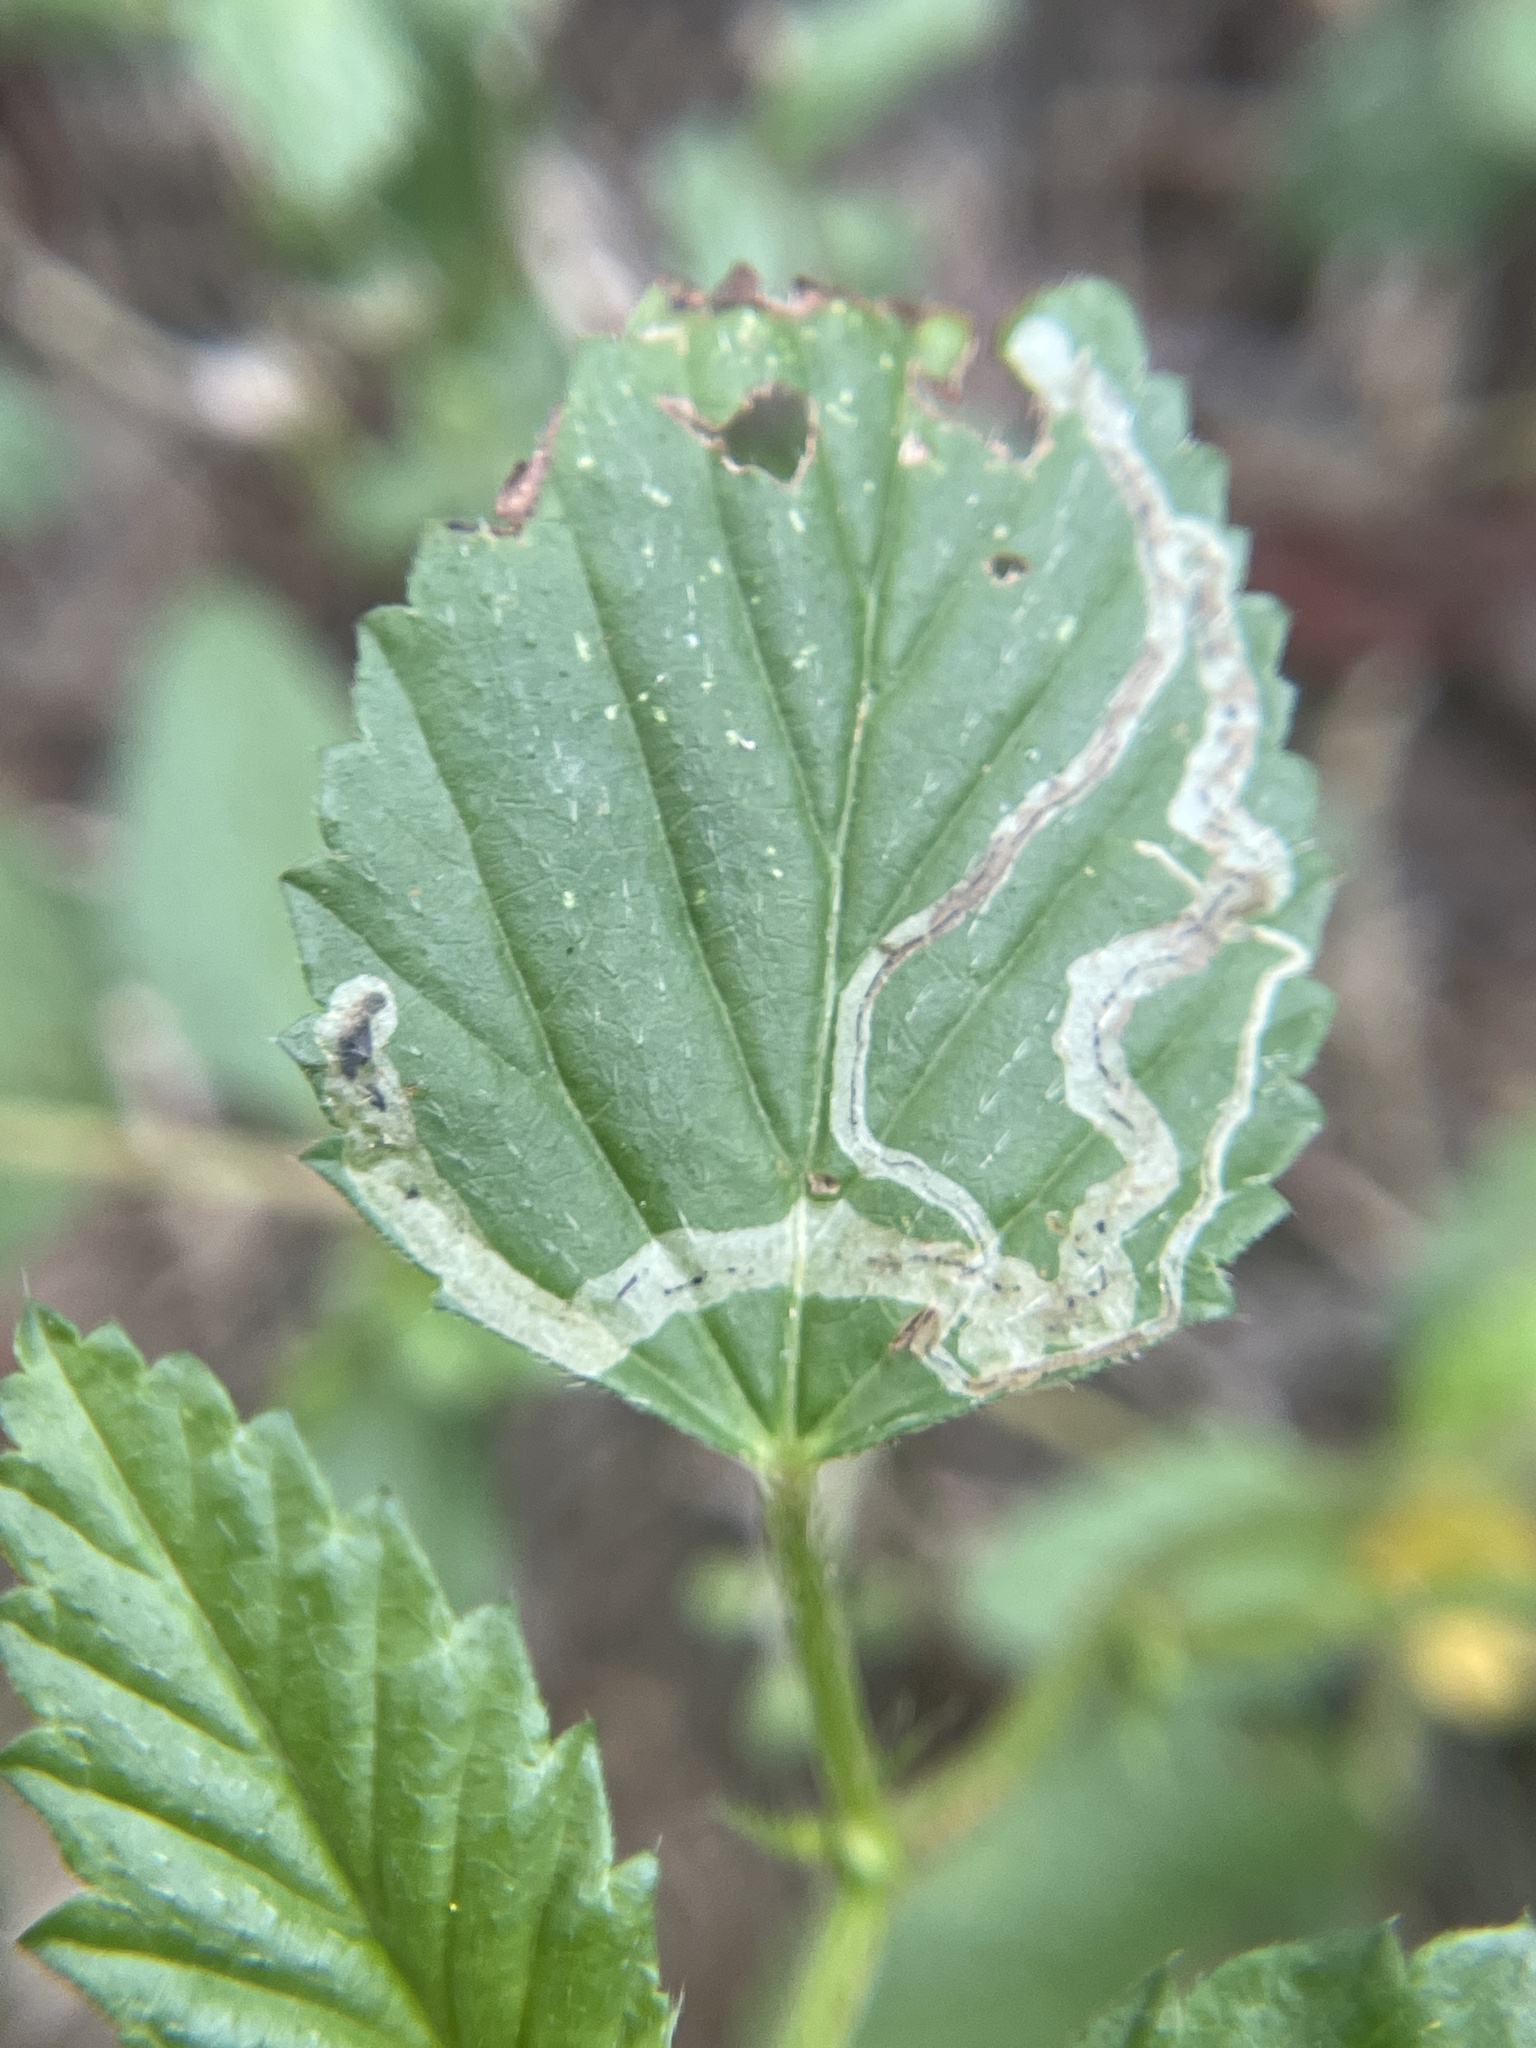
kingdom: Animalia
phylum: Arthropoda
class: Insecta
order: Diptera
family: Agromyzidae
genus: Calycomyza
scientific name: Calycomyza malvae
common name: Mallow leaf miner
